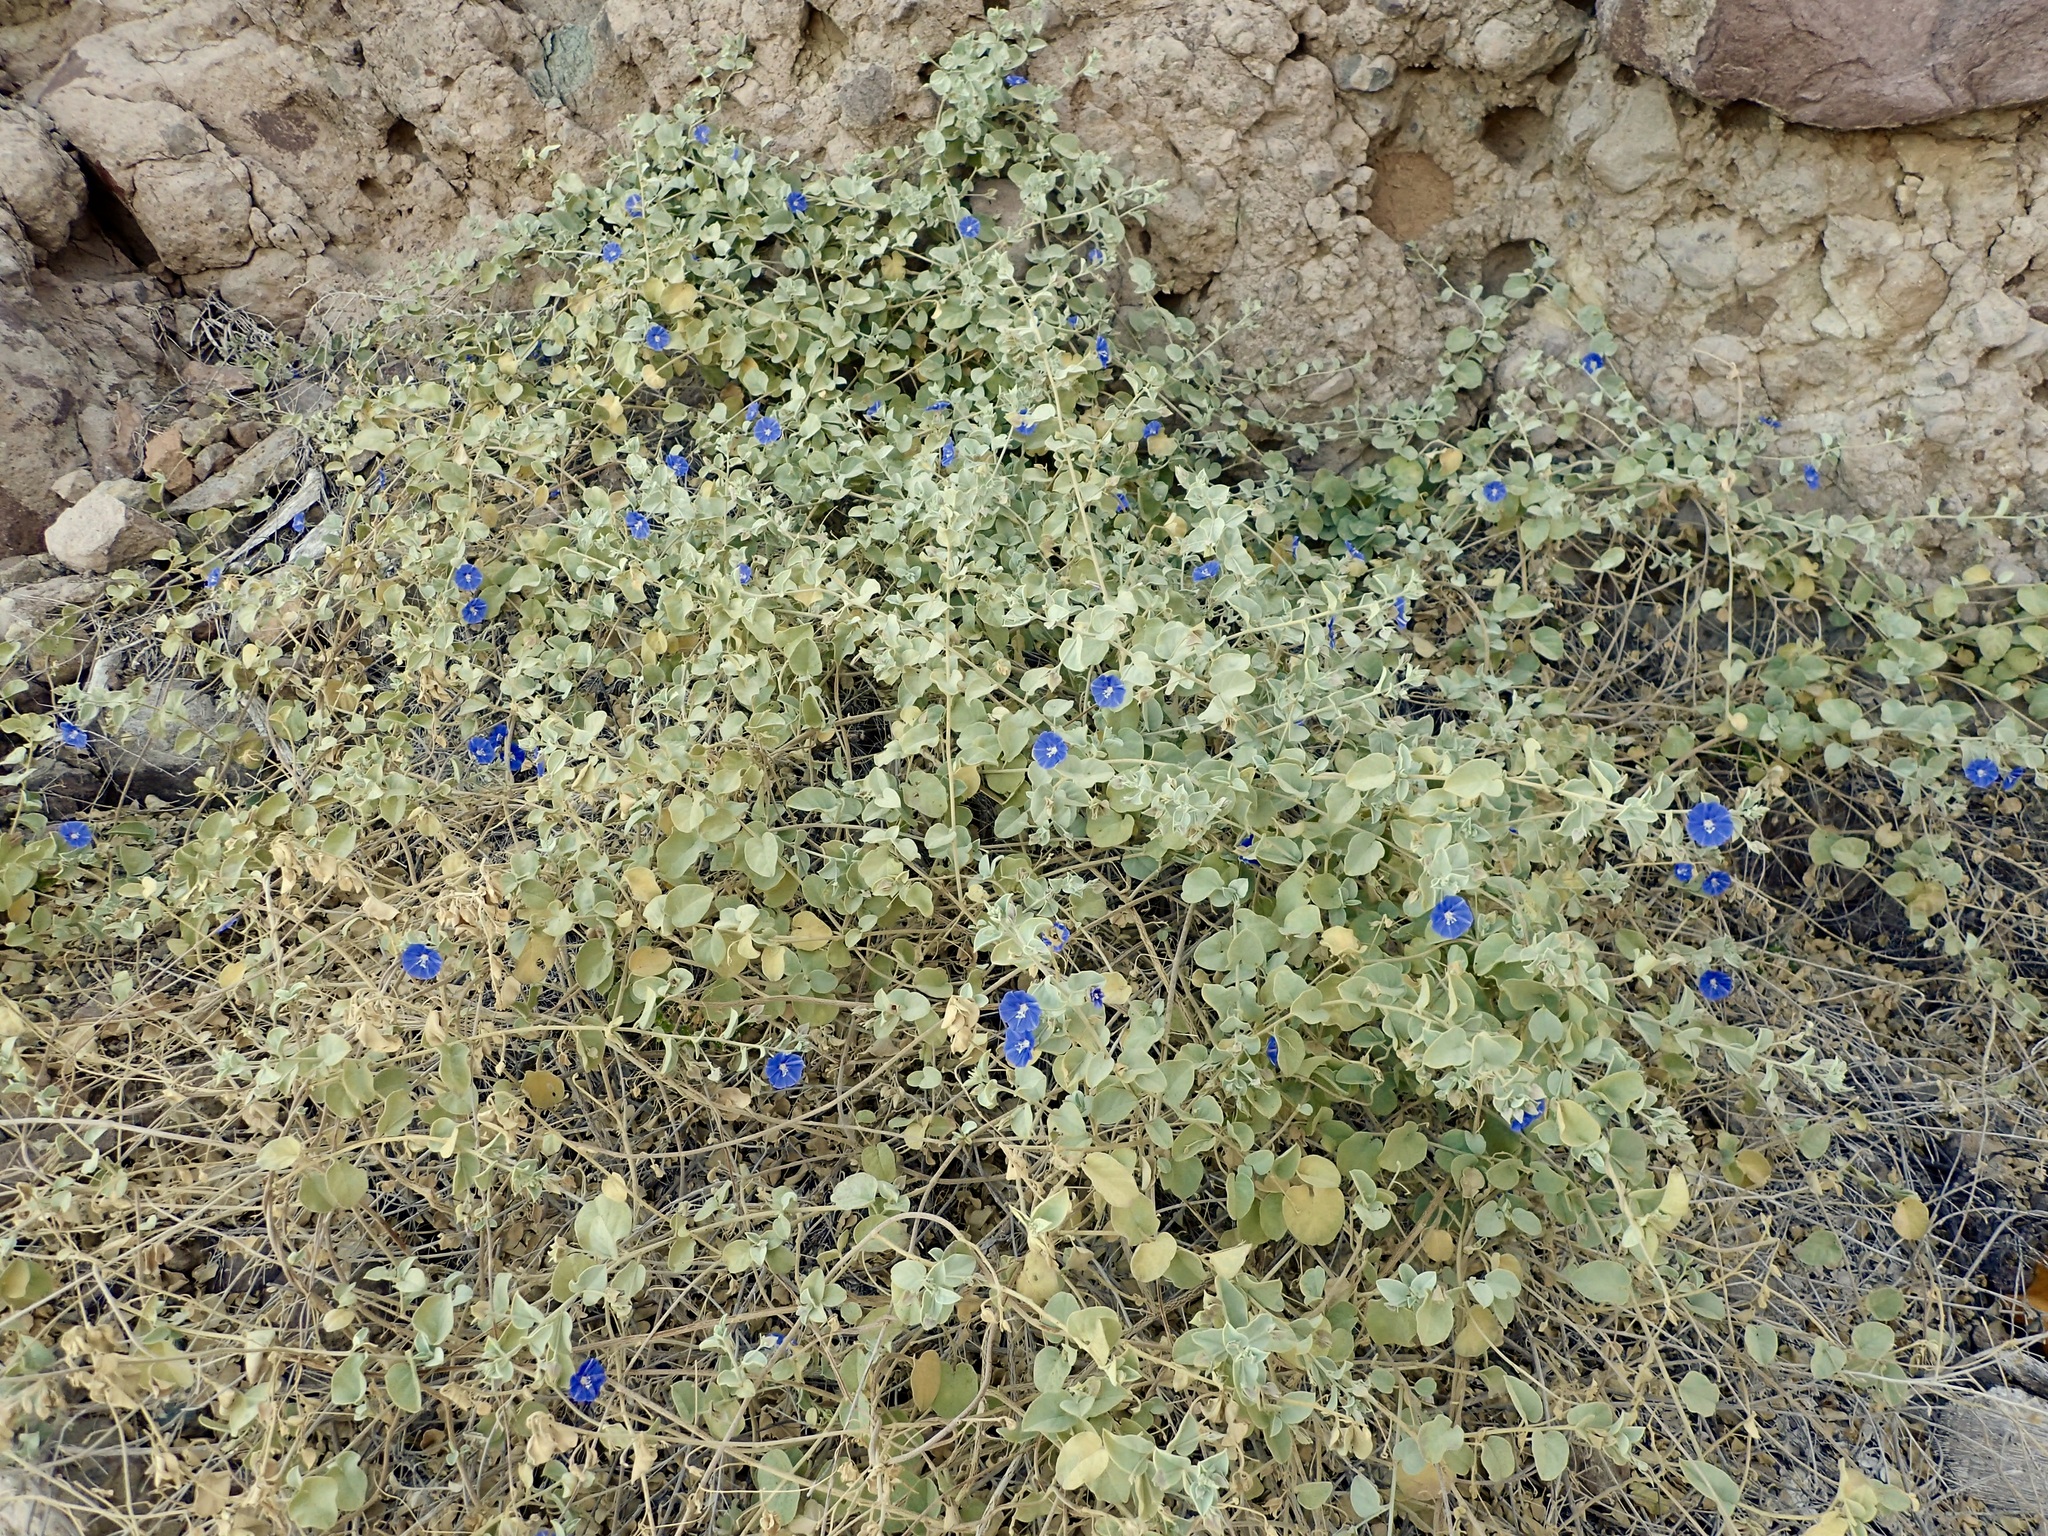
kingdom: Plantae
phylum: Tracheophyta
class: Magnoliopsida
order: Solanales
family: Convolvulaceae
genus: Jacquemontia
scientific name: Jacquemontia abutiloides
